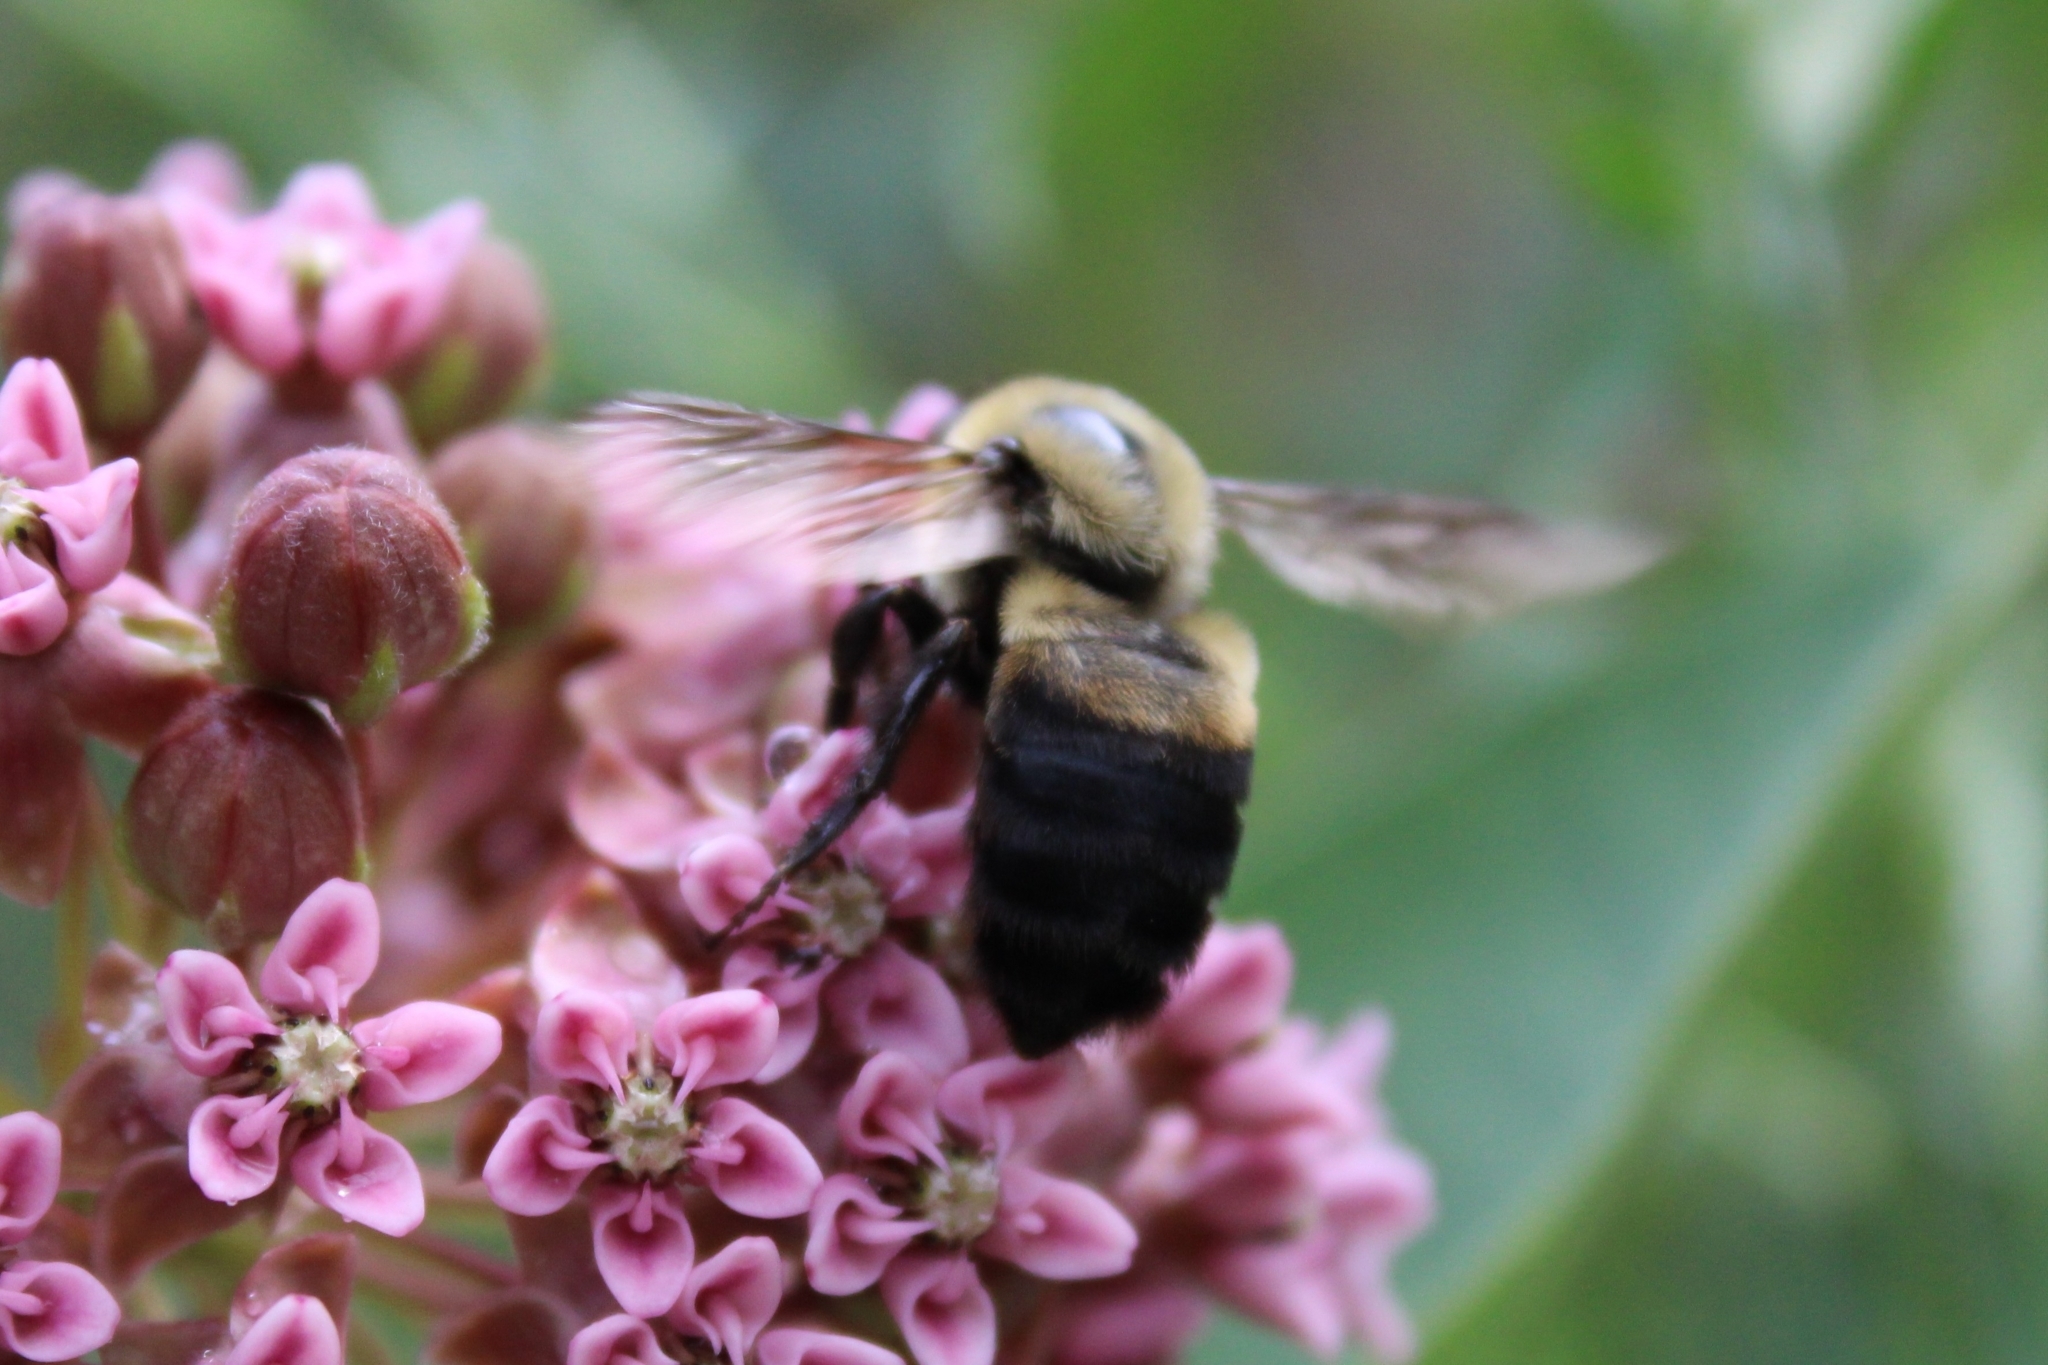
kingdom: Animalia
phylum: Arthropoda
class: Insecta
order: Hymenoptera
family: Apidae
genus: Bombus
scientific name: Bombus griseocollis
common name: Brown-belted bumble bee
